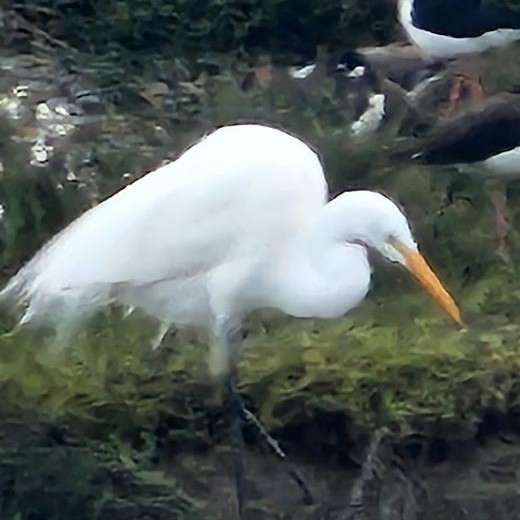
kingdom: Animalia
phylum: Chordata
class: Aves
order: Pelecaniformes
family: Ardeidae
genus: Ardea
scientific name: Ardea alba
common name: Great egret
